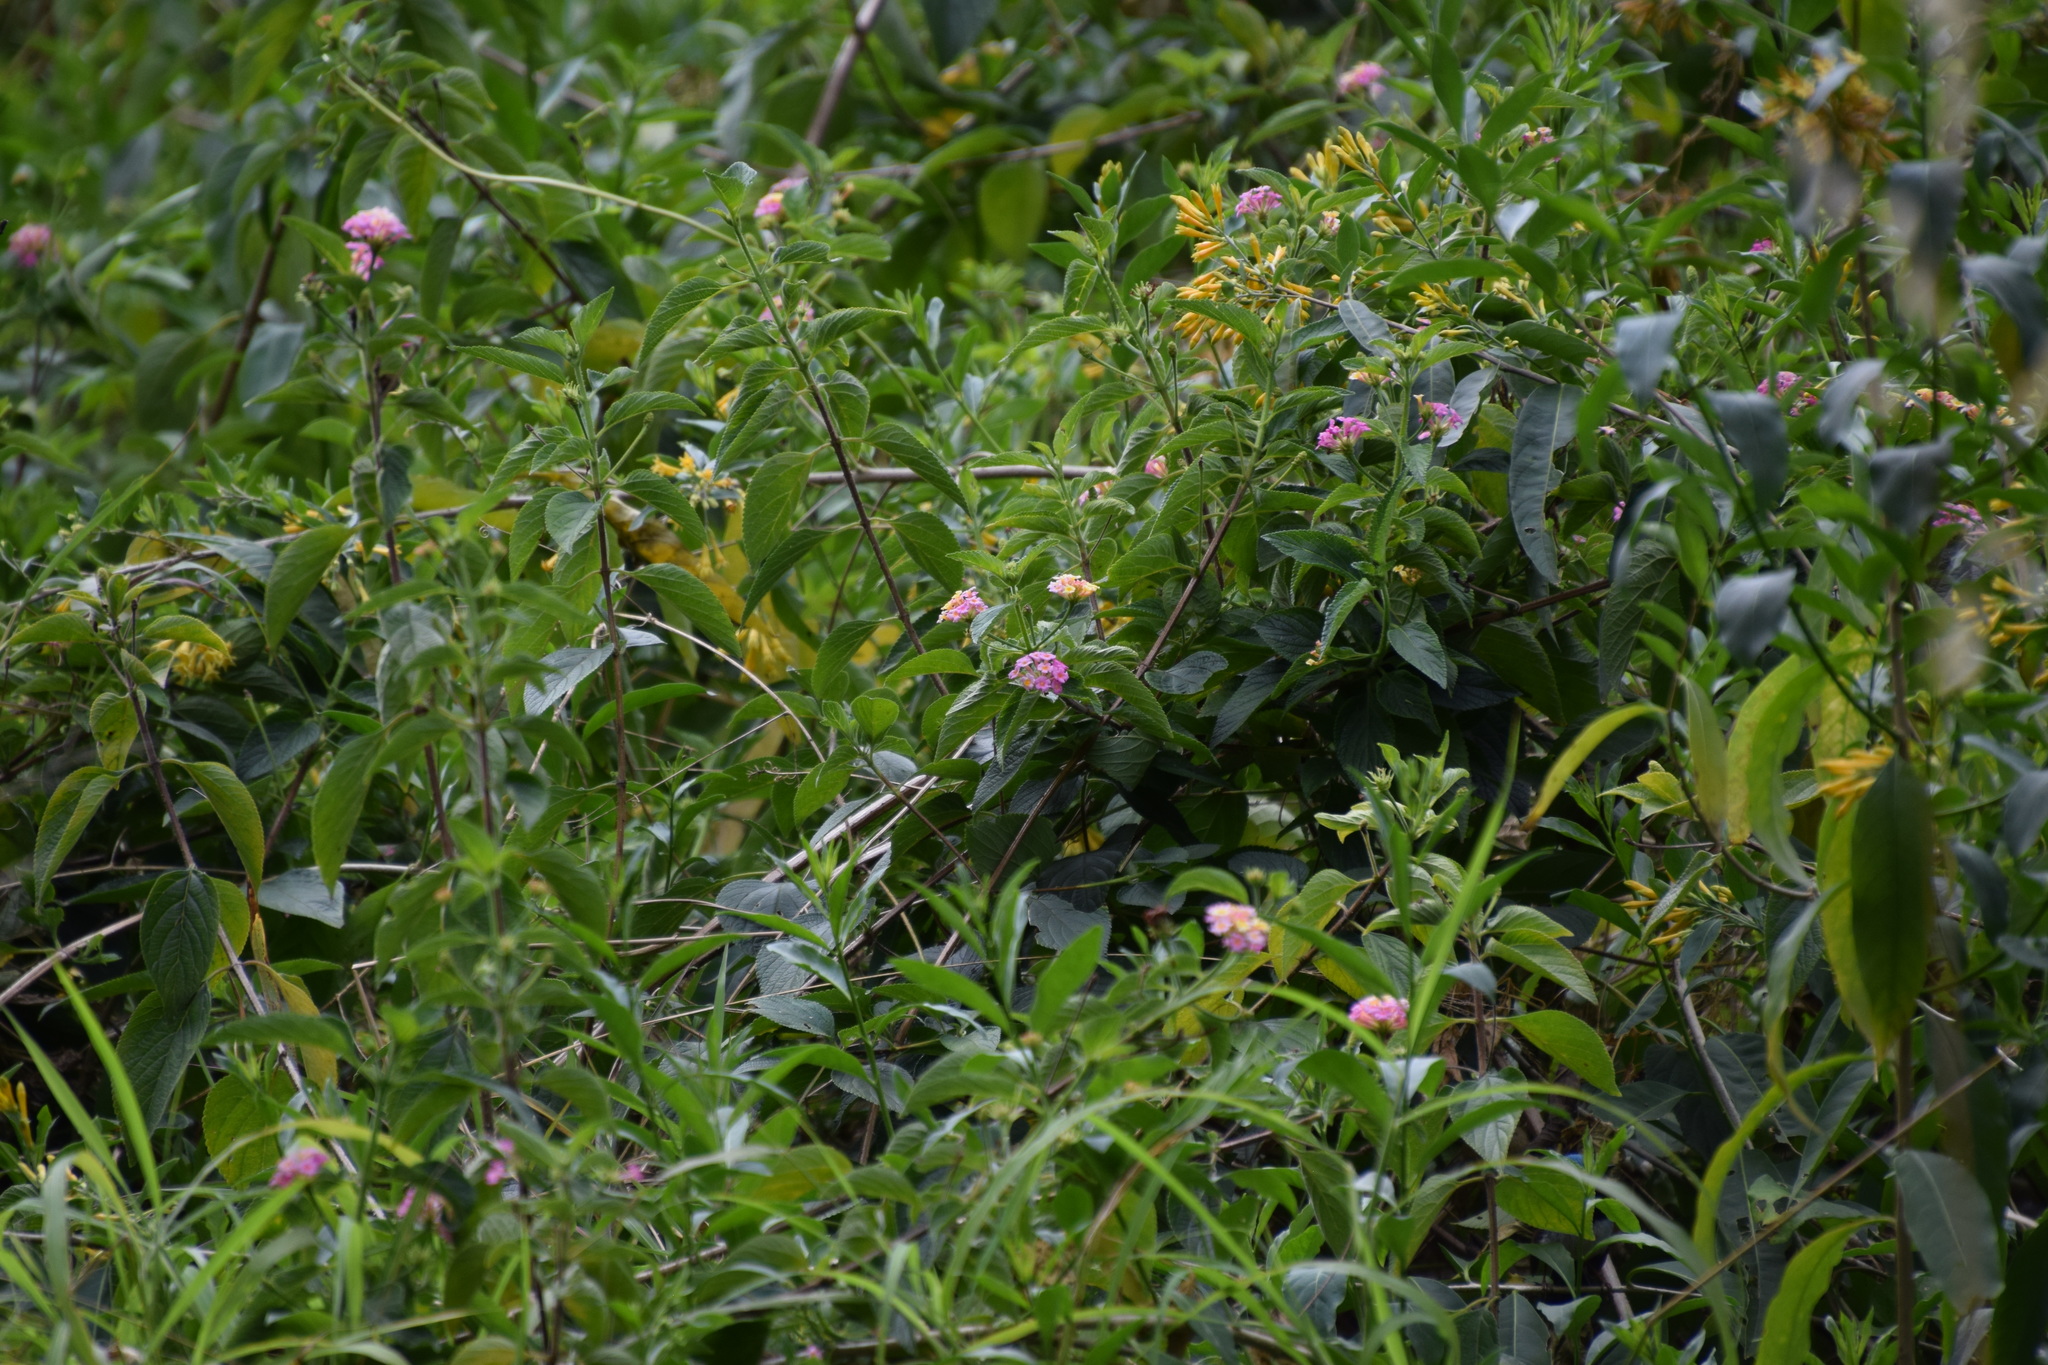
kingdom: Plantae
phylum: Tracheophyta
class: Magnoliopsida
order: Lamiales
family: Verbenaceae
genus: Lantana
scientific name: Lantana camara
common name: Lantana
